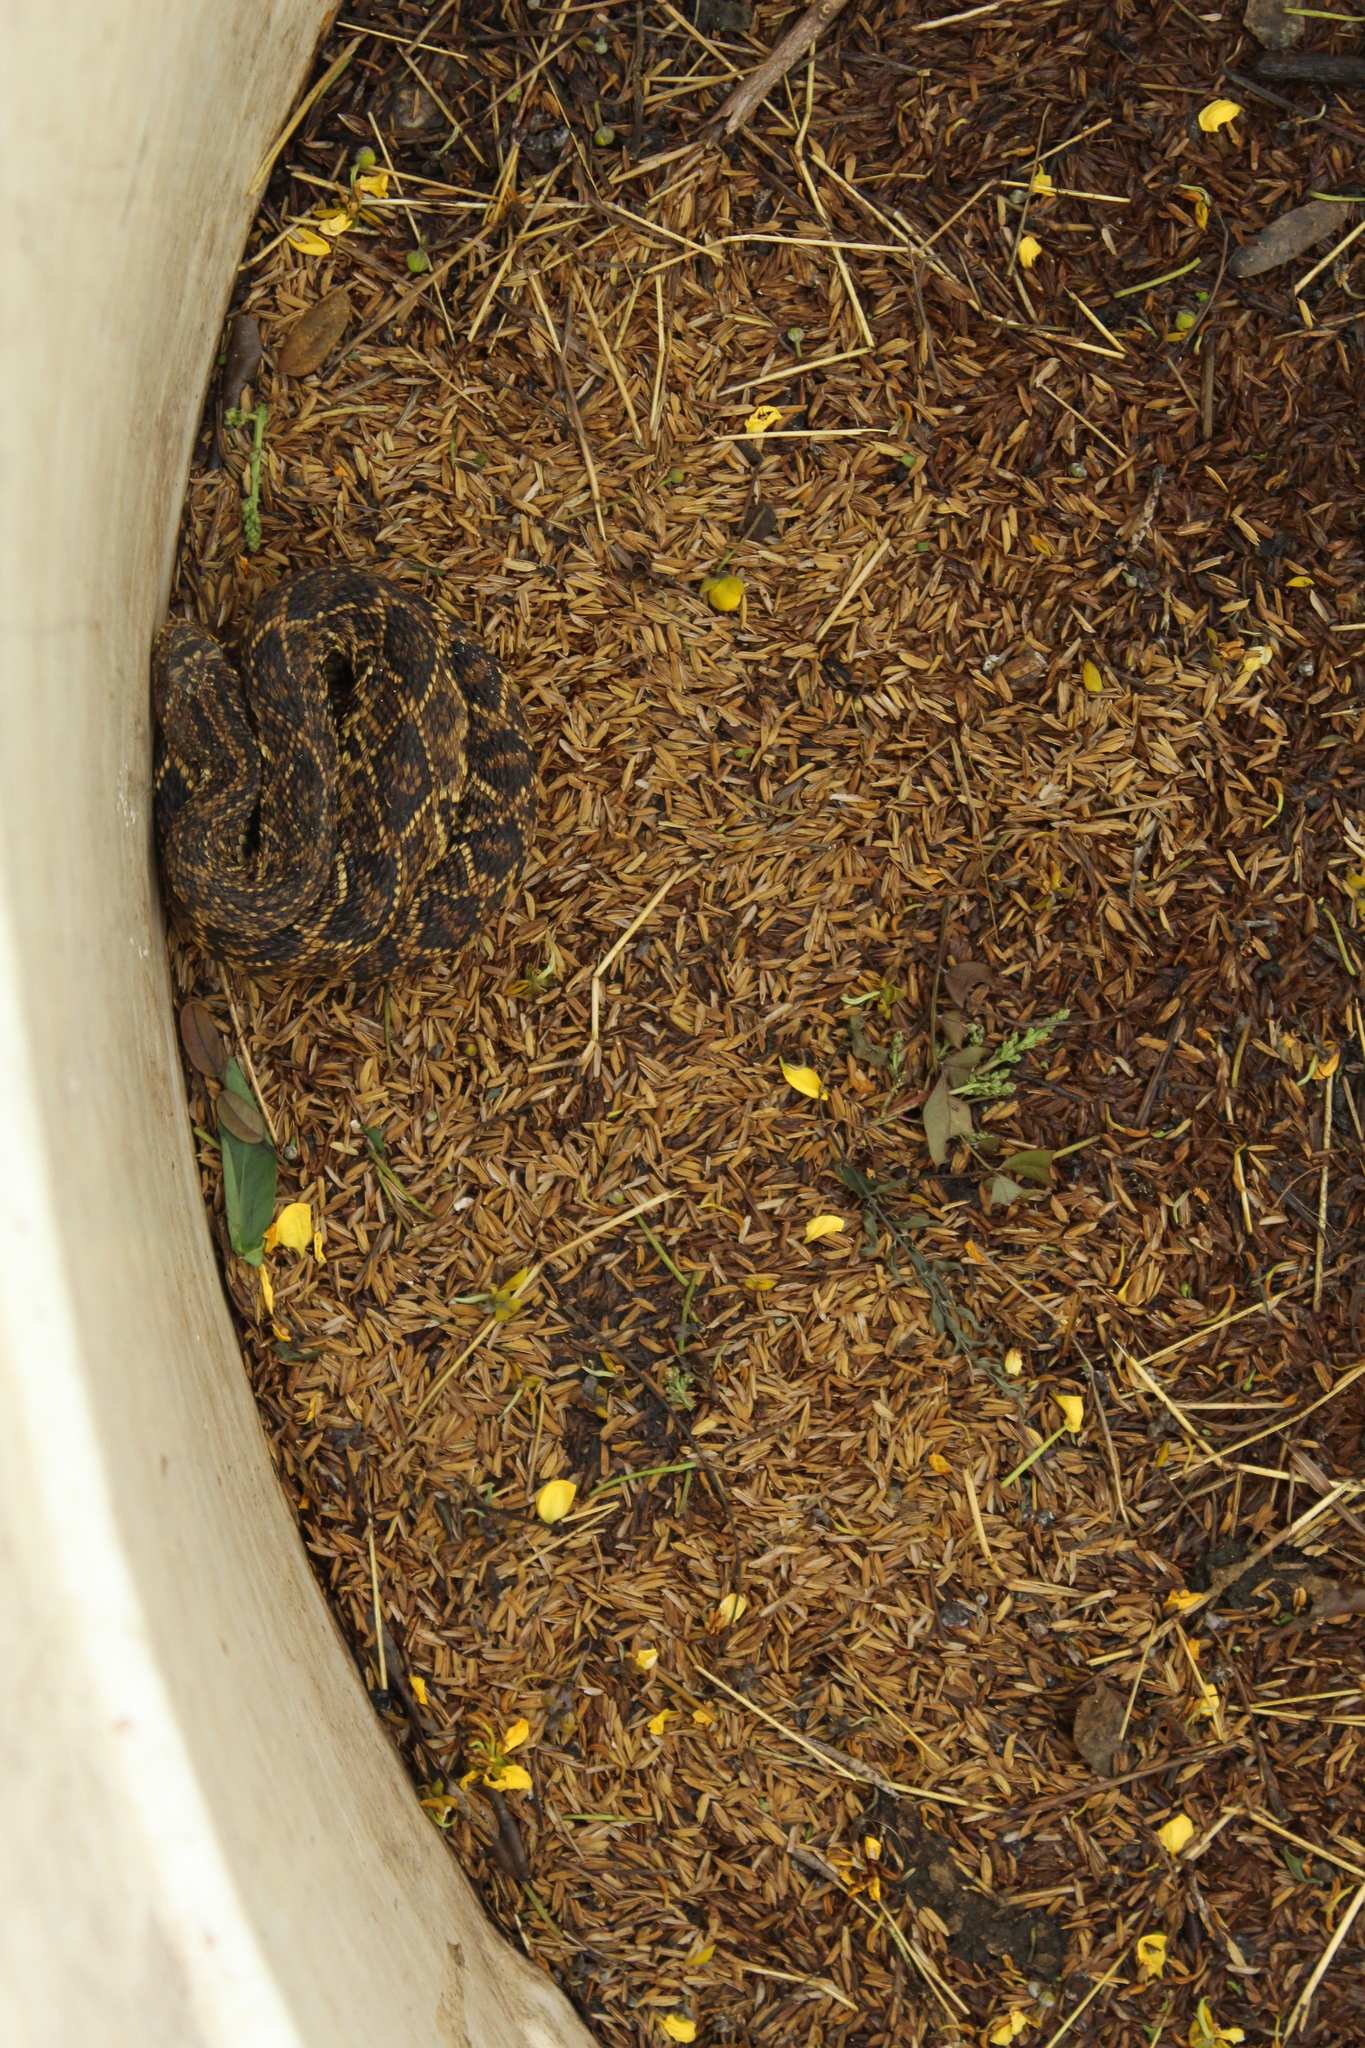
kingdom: Animalia
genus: Crotalus
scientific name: Crotalus durissus
